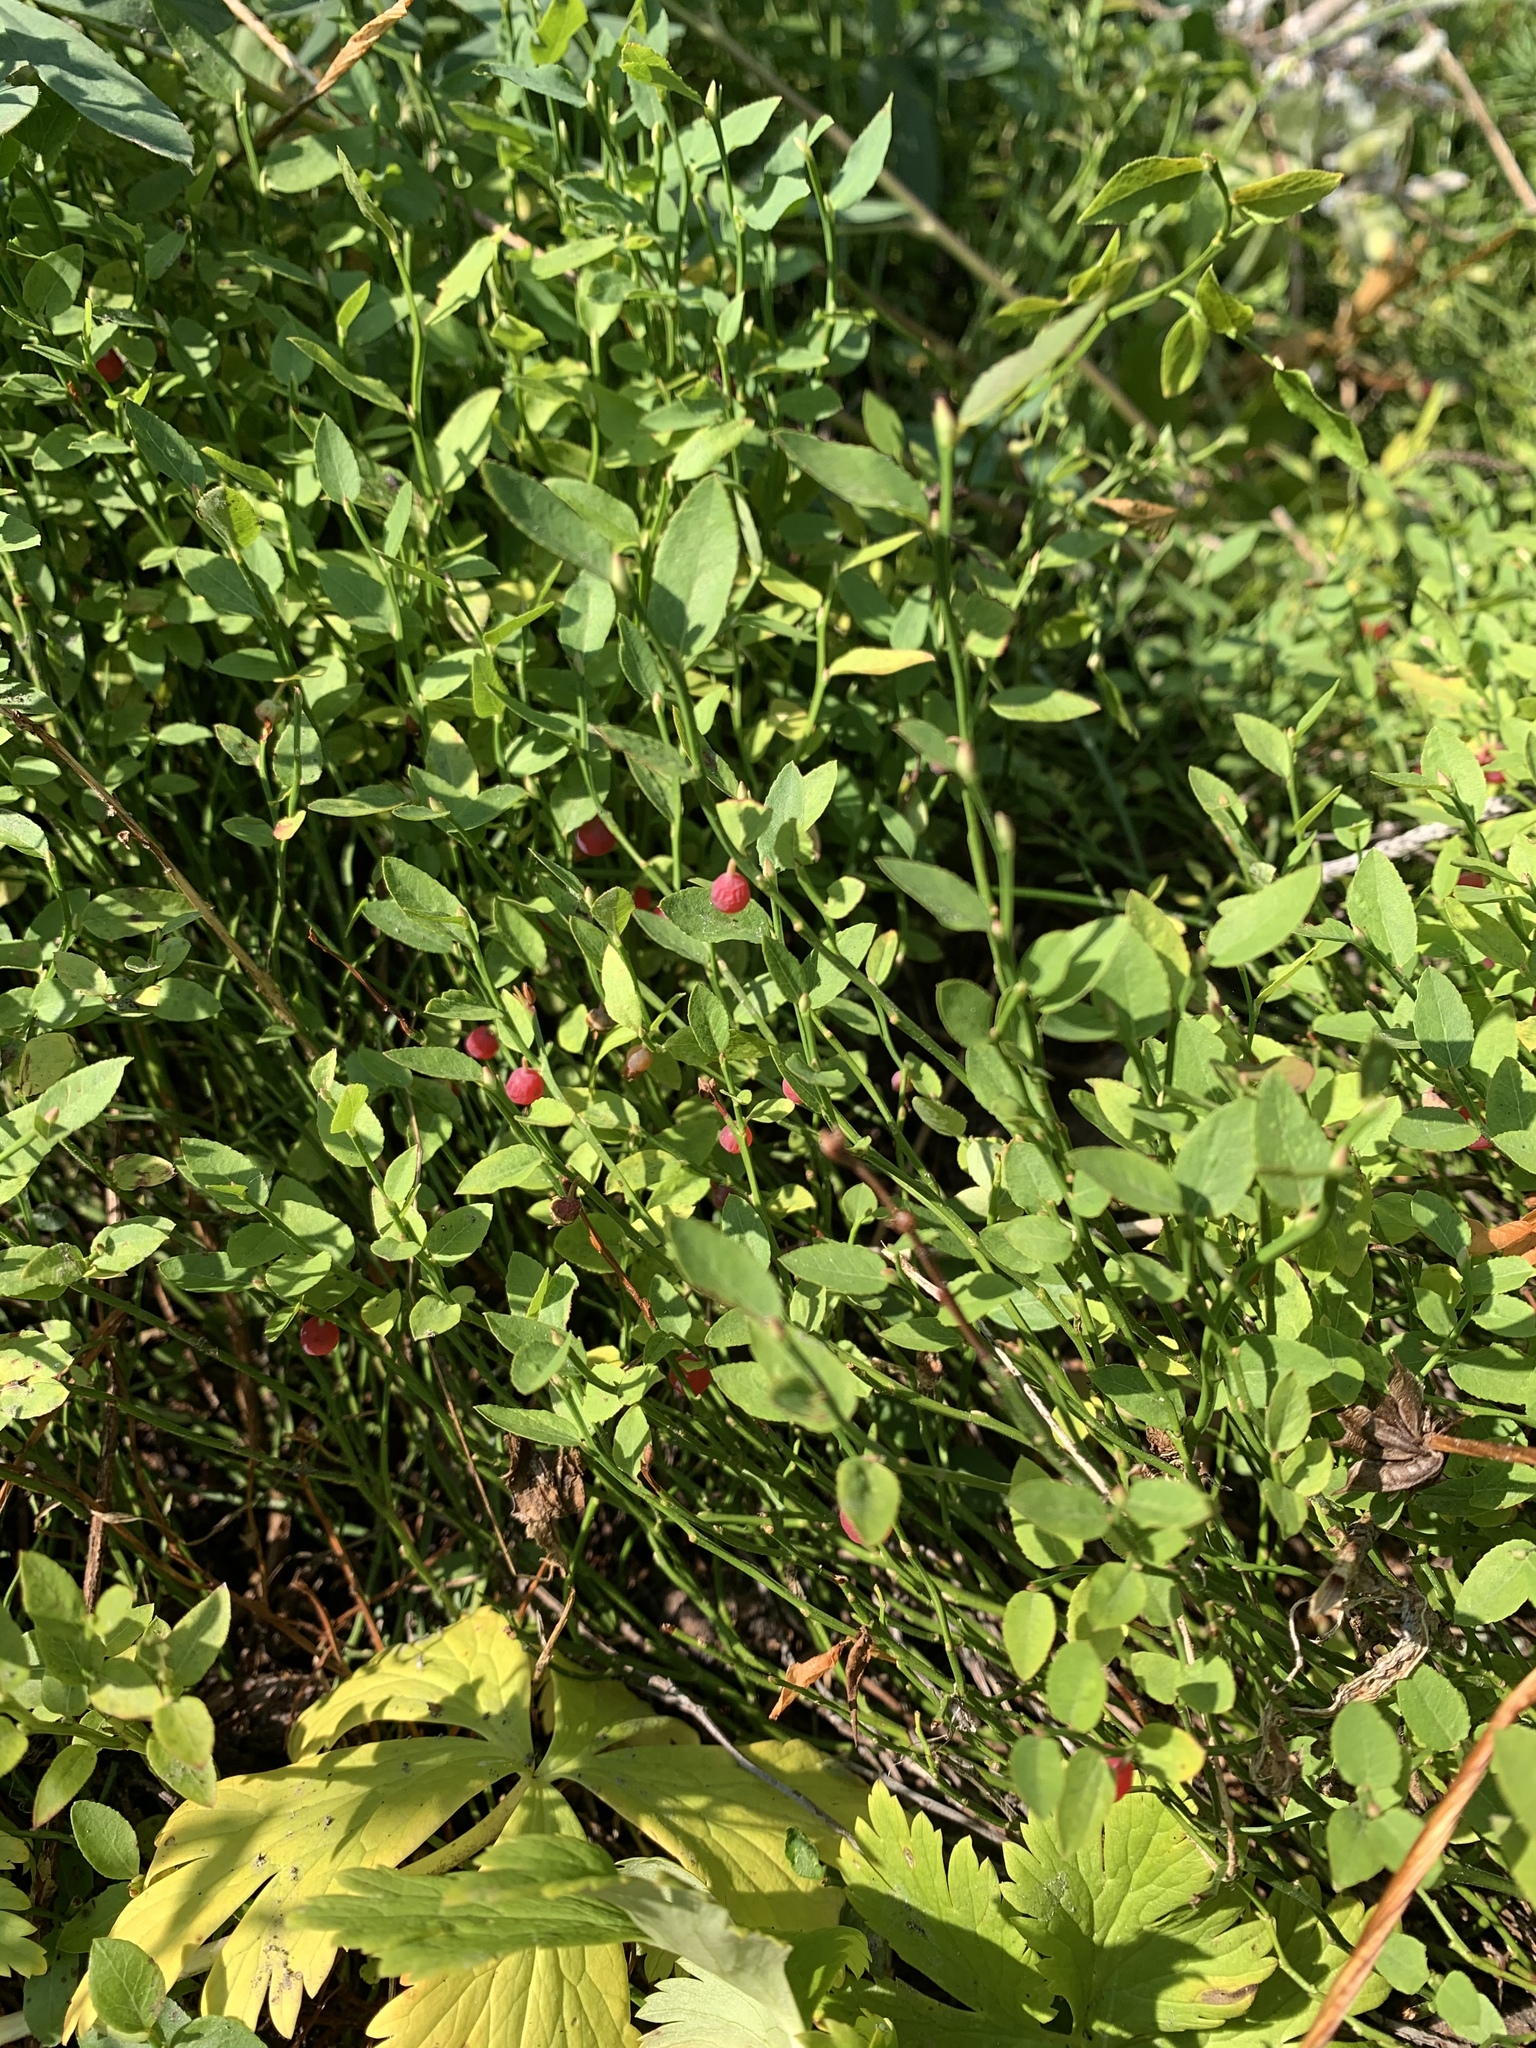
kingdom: Plantae
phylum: Tracheophyta
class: Magnoliopsida
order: Ericales
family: Ericaceae
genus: Vaccinium
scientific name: Vaccinium scoparium
